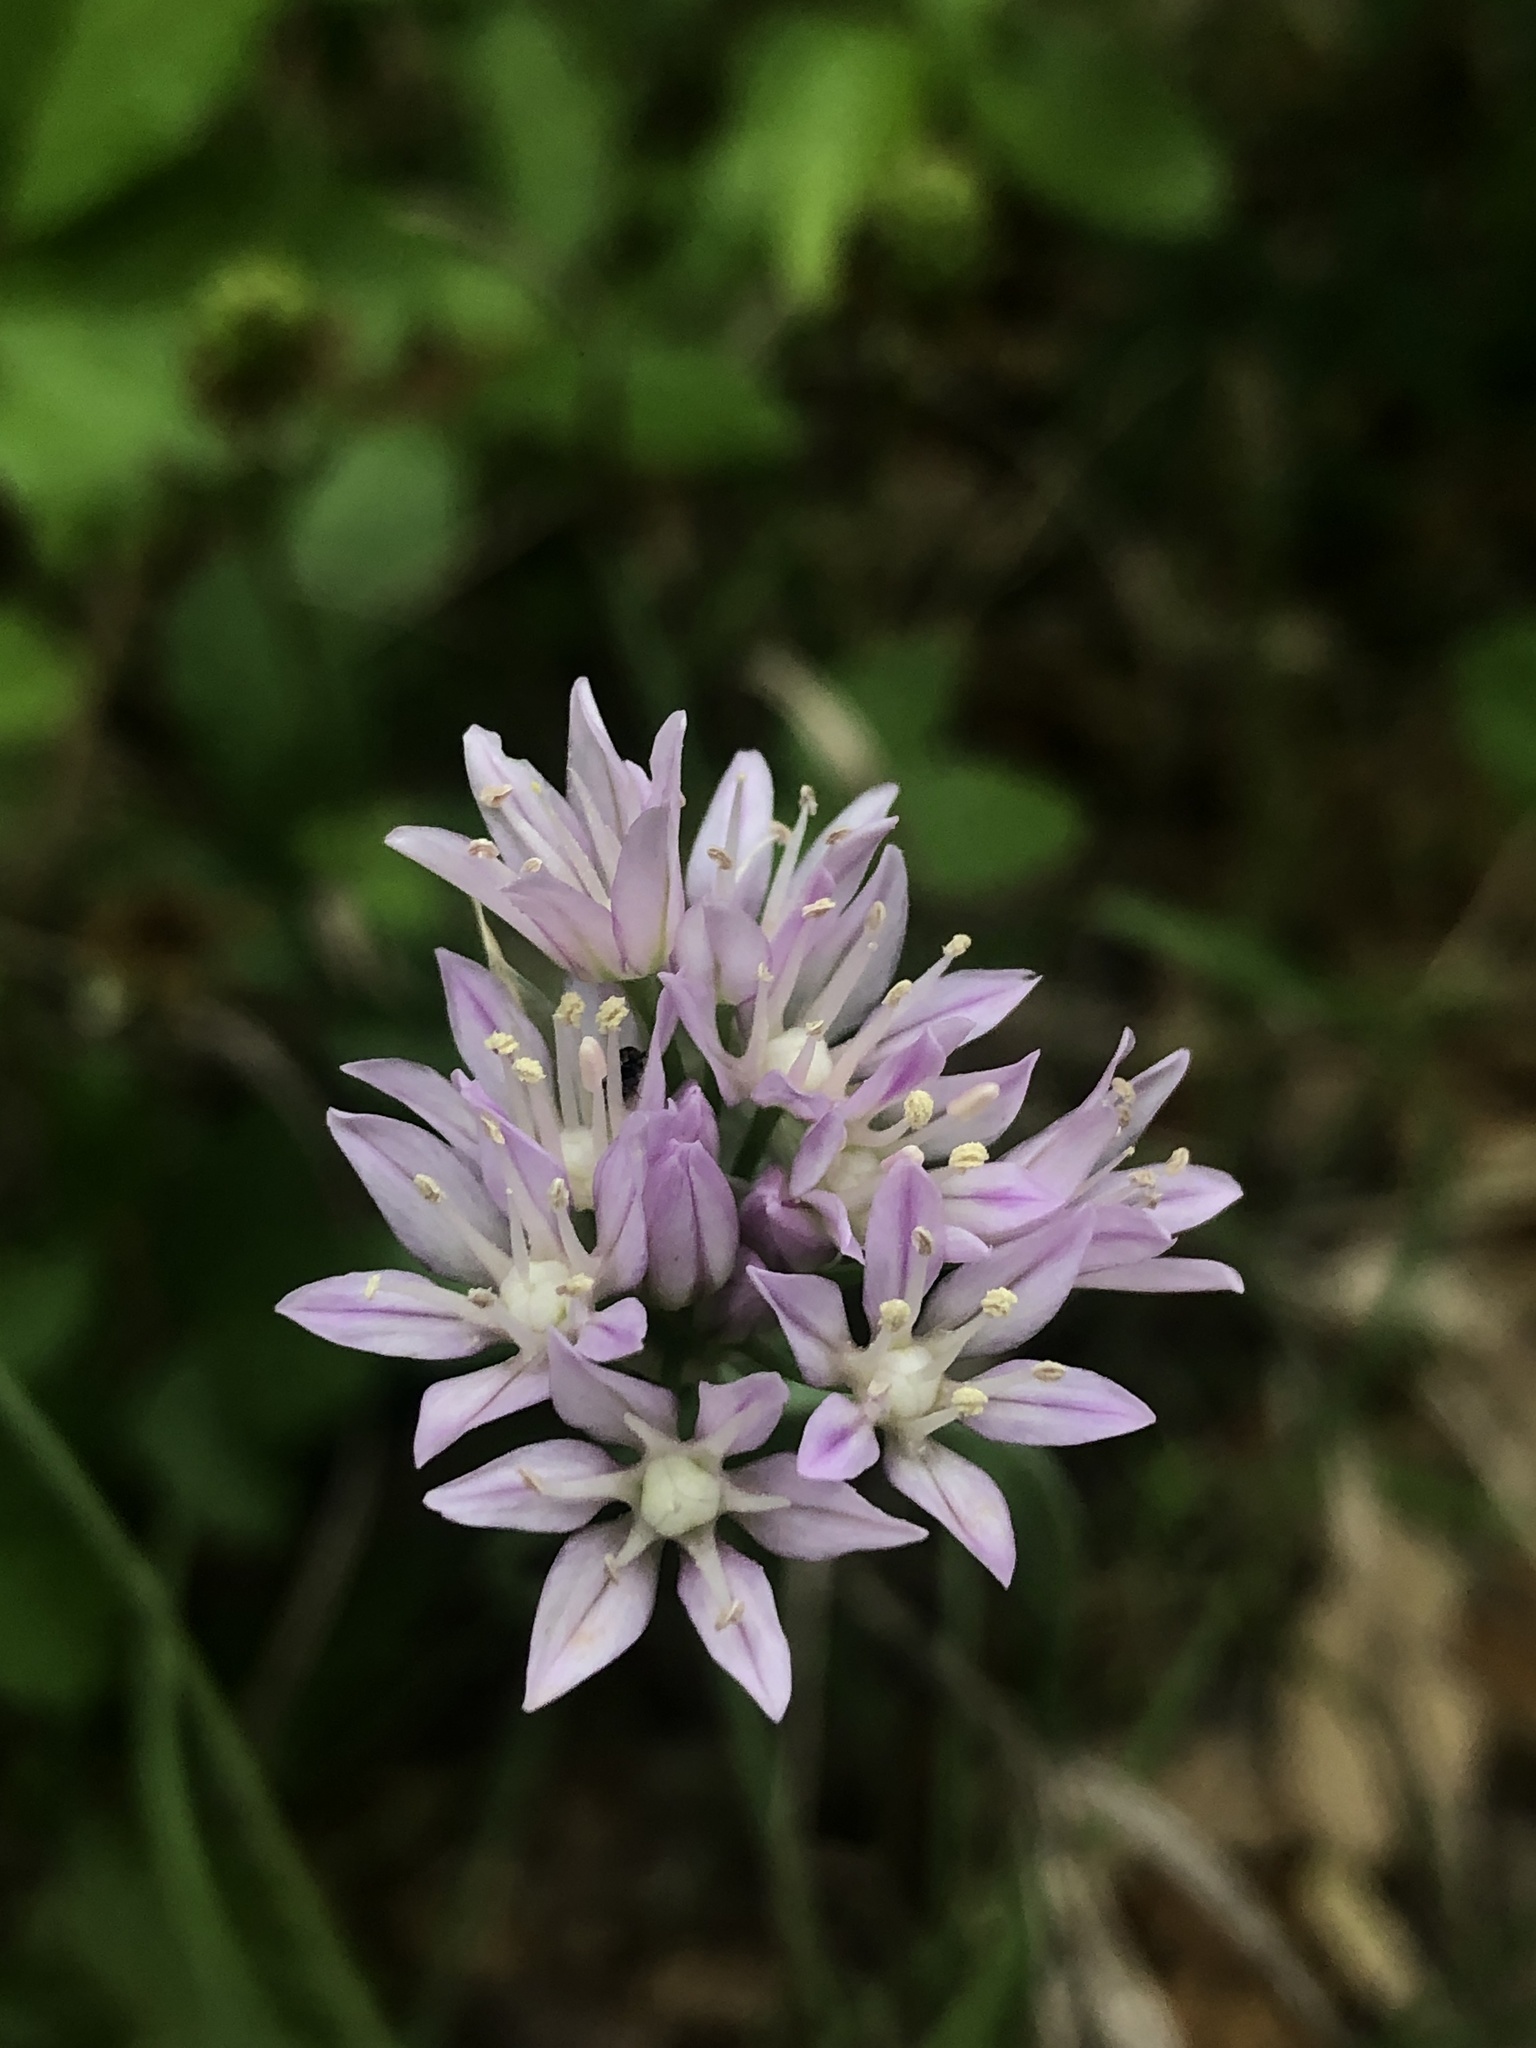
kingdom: Plantae
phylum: Tracheophyta
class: Liliopsida
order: Asparagales
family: Amaryllidaceae
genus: Allium
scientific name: Allium drummondii
